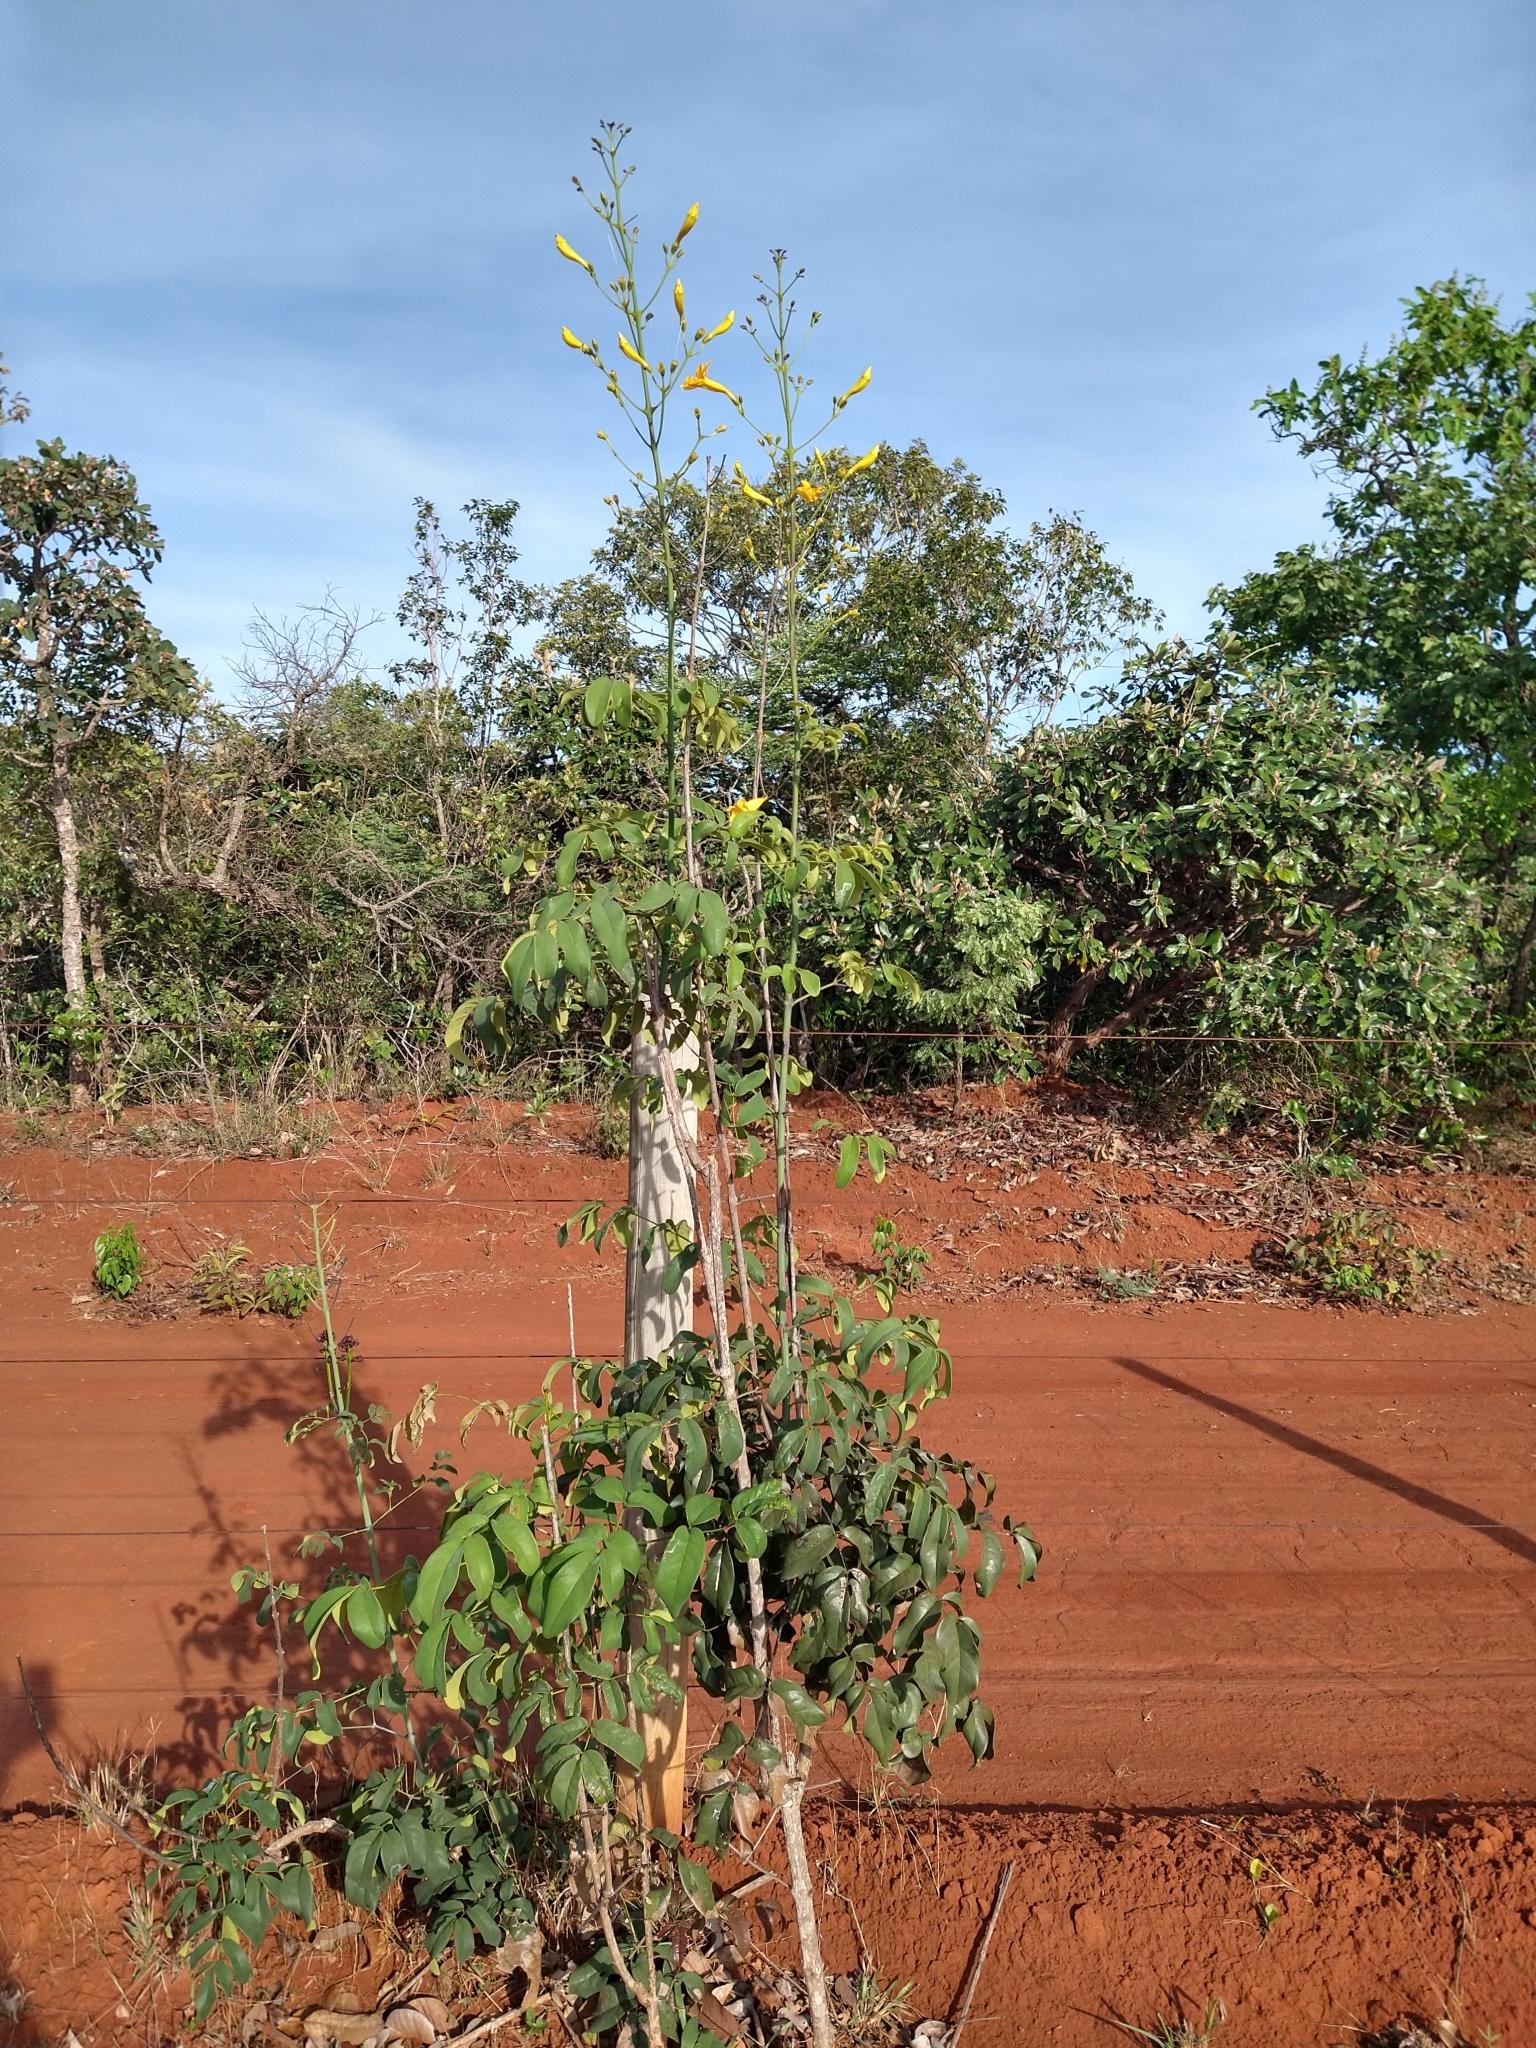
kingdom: Plantae
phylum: Tracheophyta
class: Magnoliopsida
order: Lamiales
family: Bignoniaceae
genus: Adenocalymma
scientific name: Adenocalymma pedunculatum
